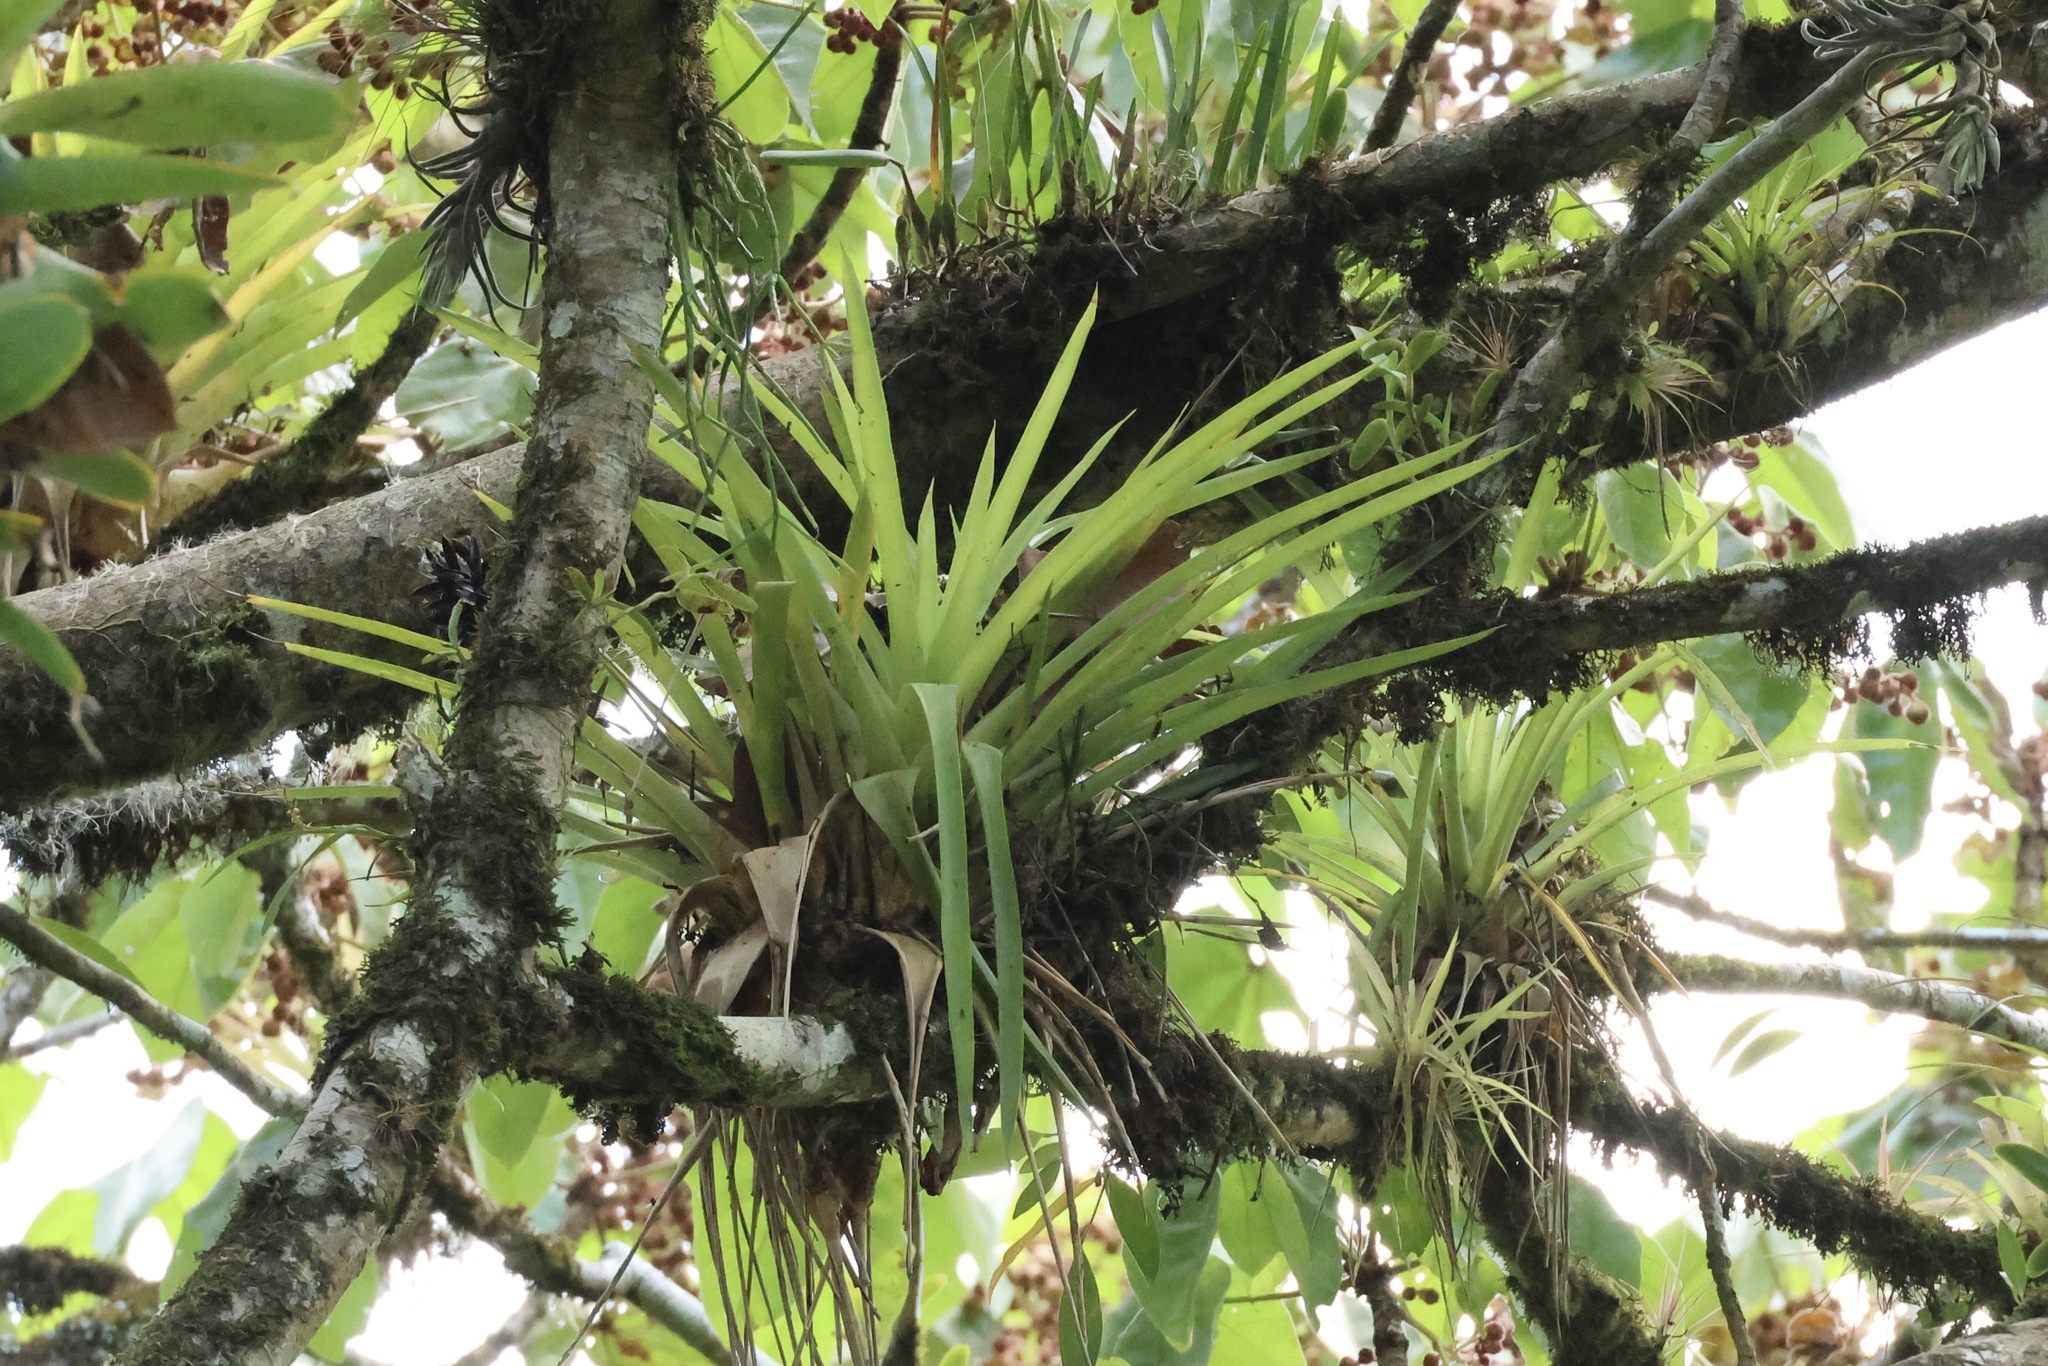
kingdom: Plantae
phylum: Tracheophyta
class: Liliopsida
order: Poales
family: Bromeliaceae
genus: Guzmania
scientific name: Guzmania monostachia
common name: West indian tufted airplant
